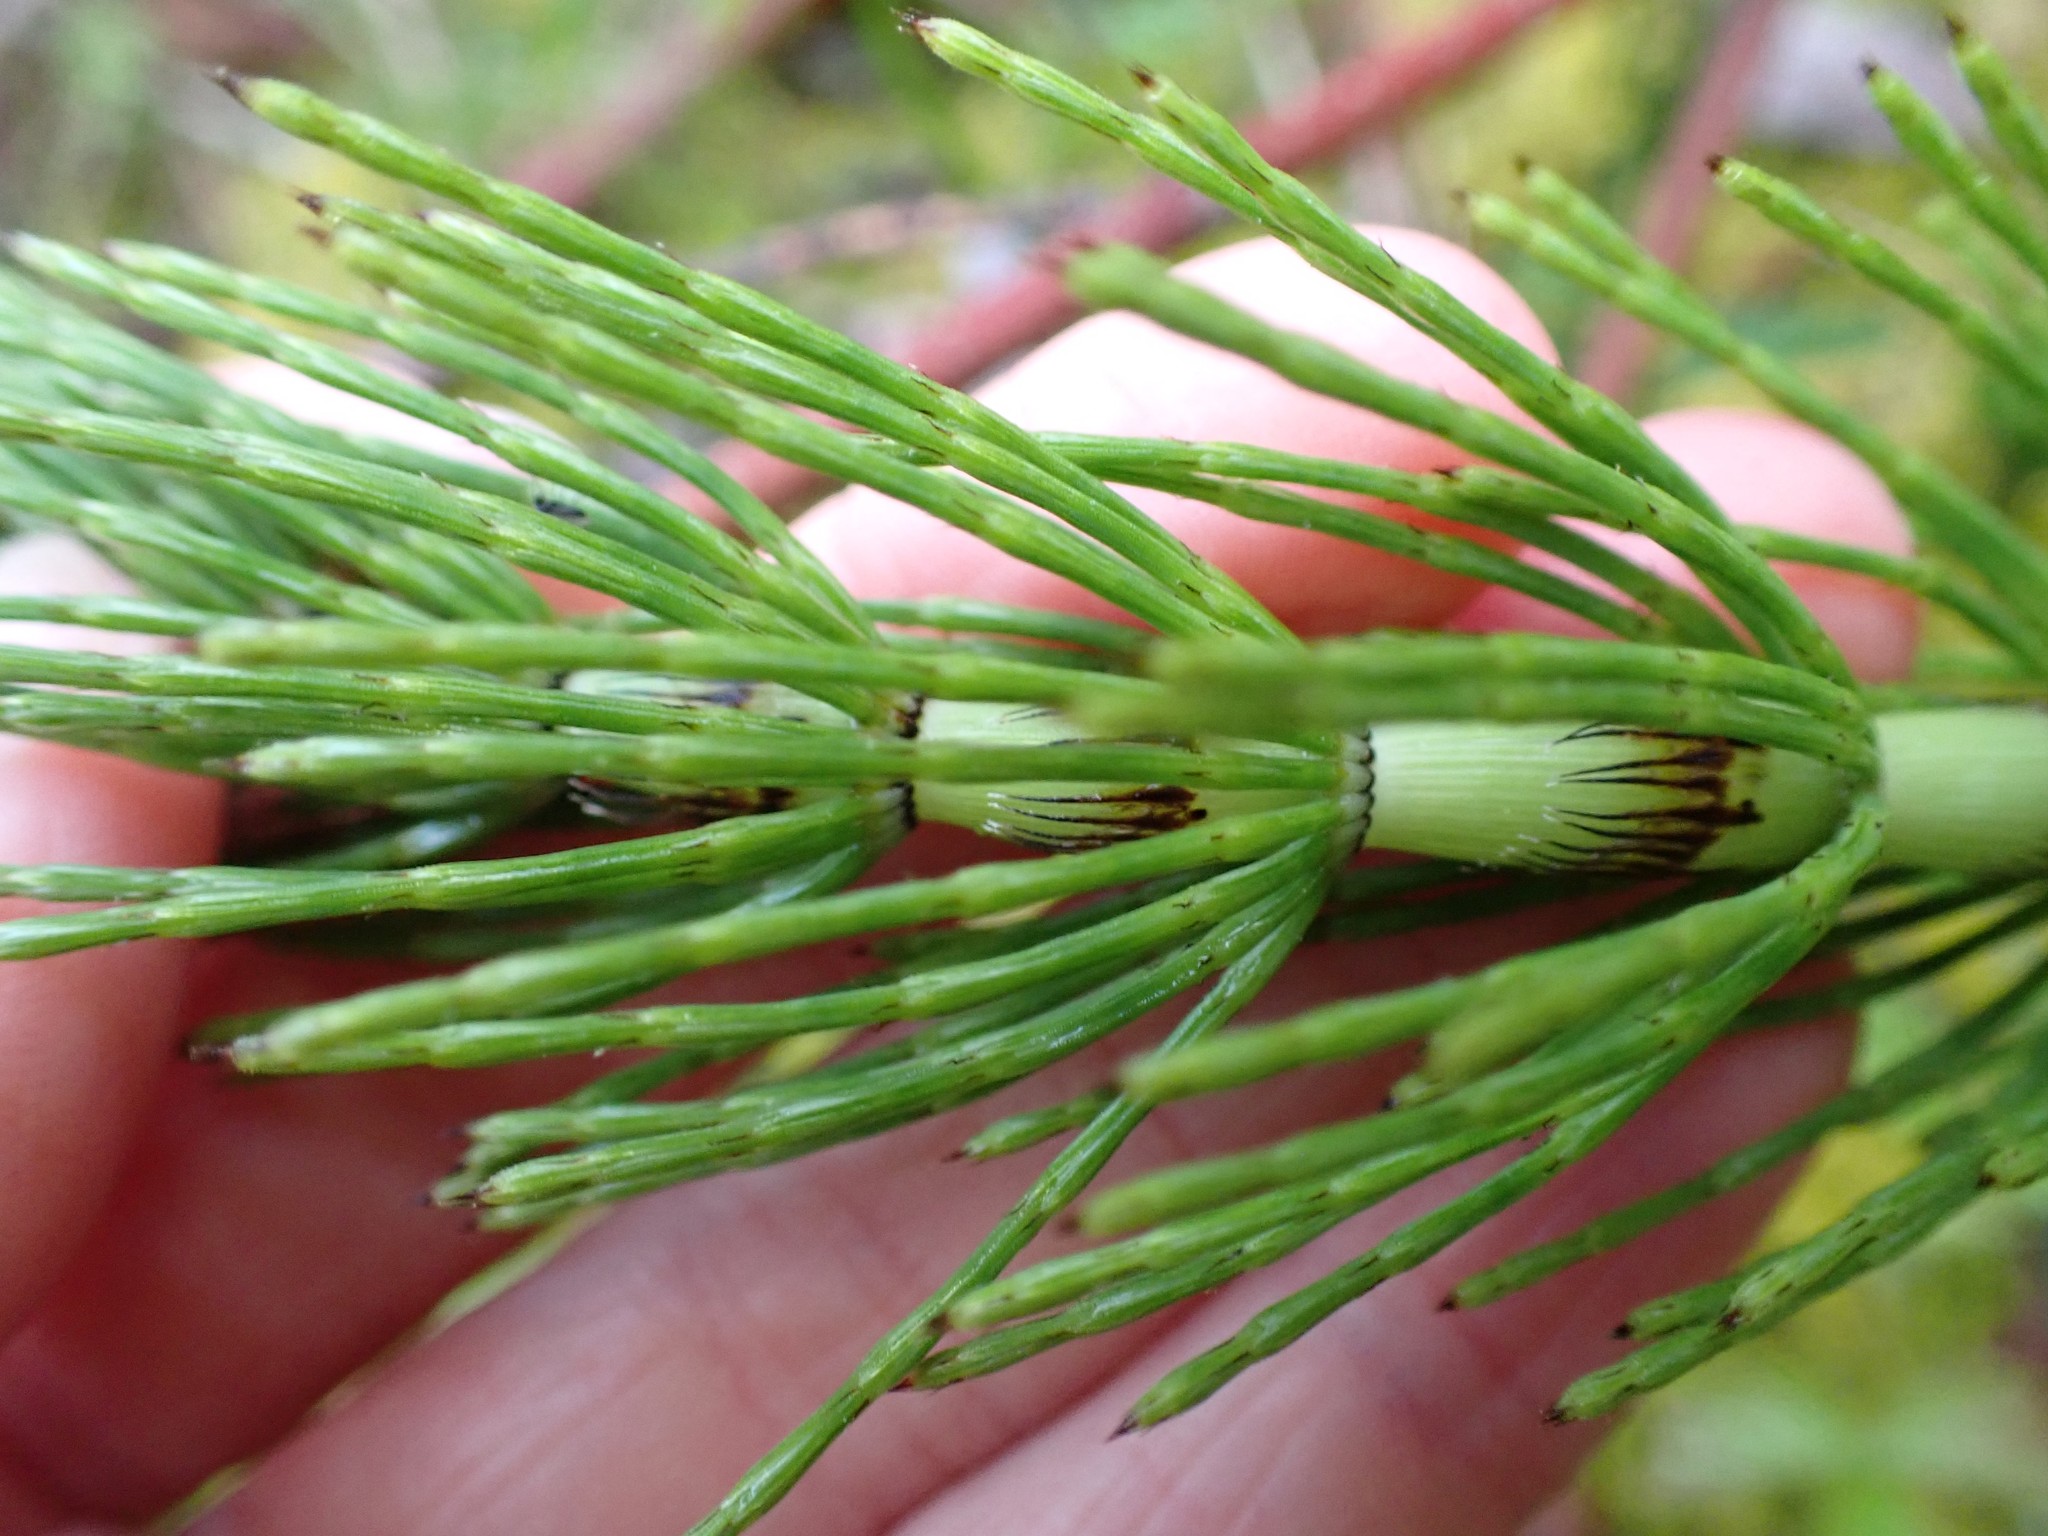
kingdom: Plantae
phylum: Tracheophyta
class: Polypodiopsida
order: Equisetales
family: Equisetaceae
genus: Equisetum
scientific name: Equisetum telmateia
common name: Great horsetail
